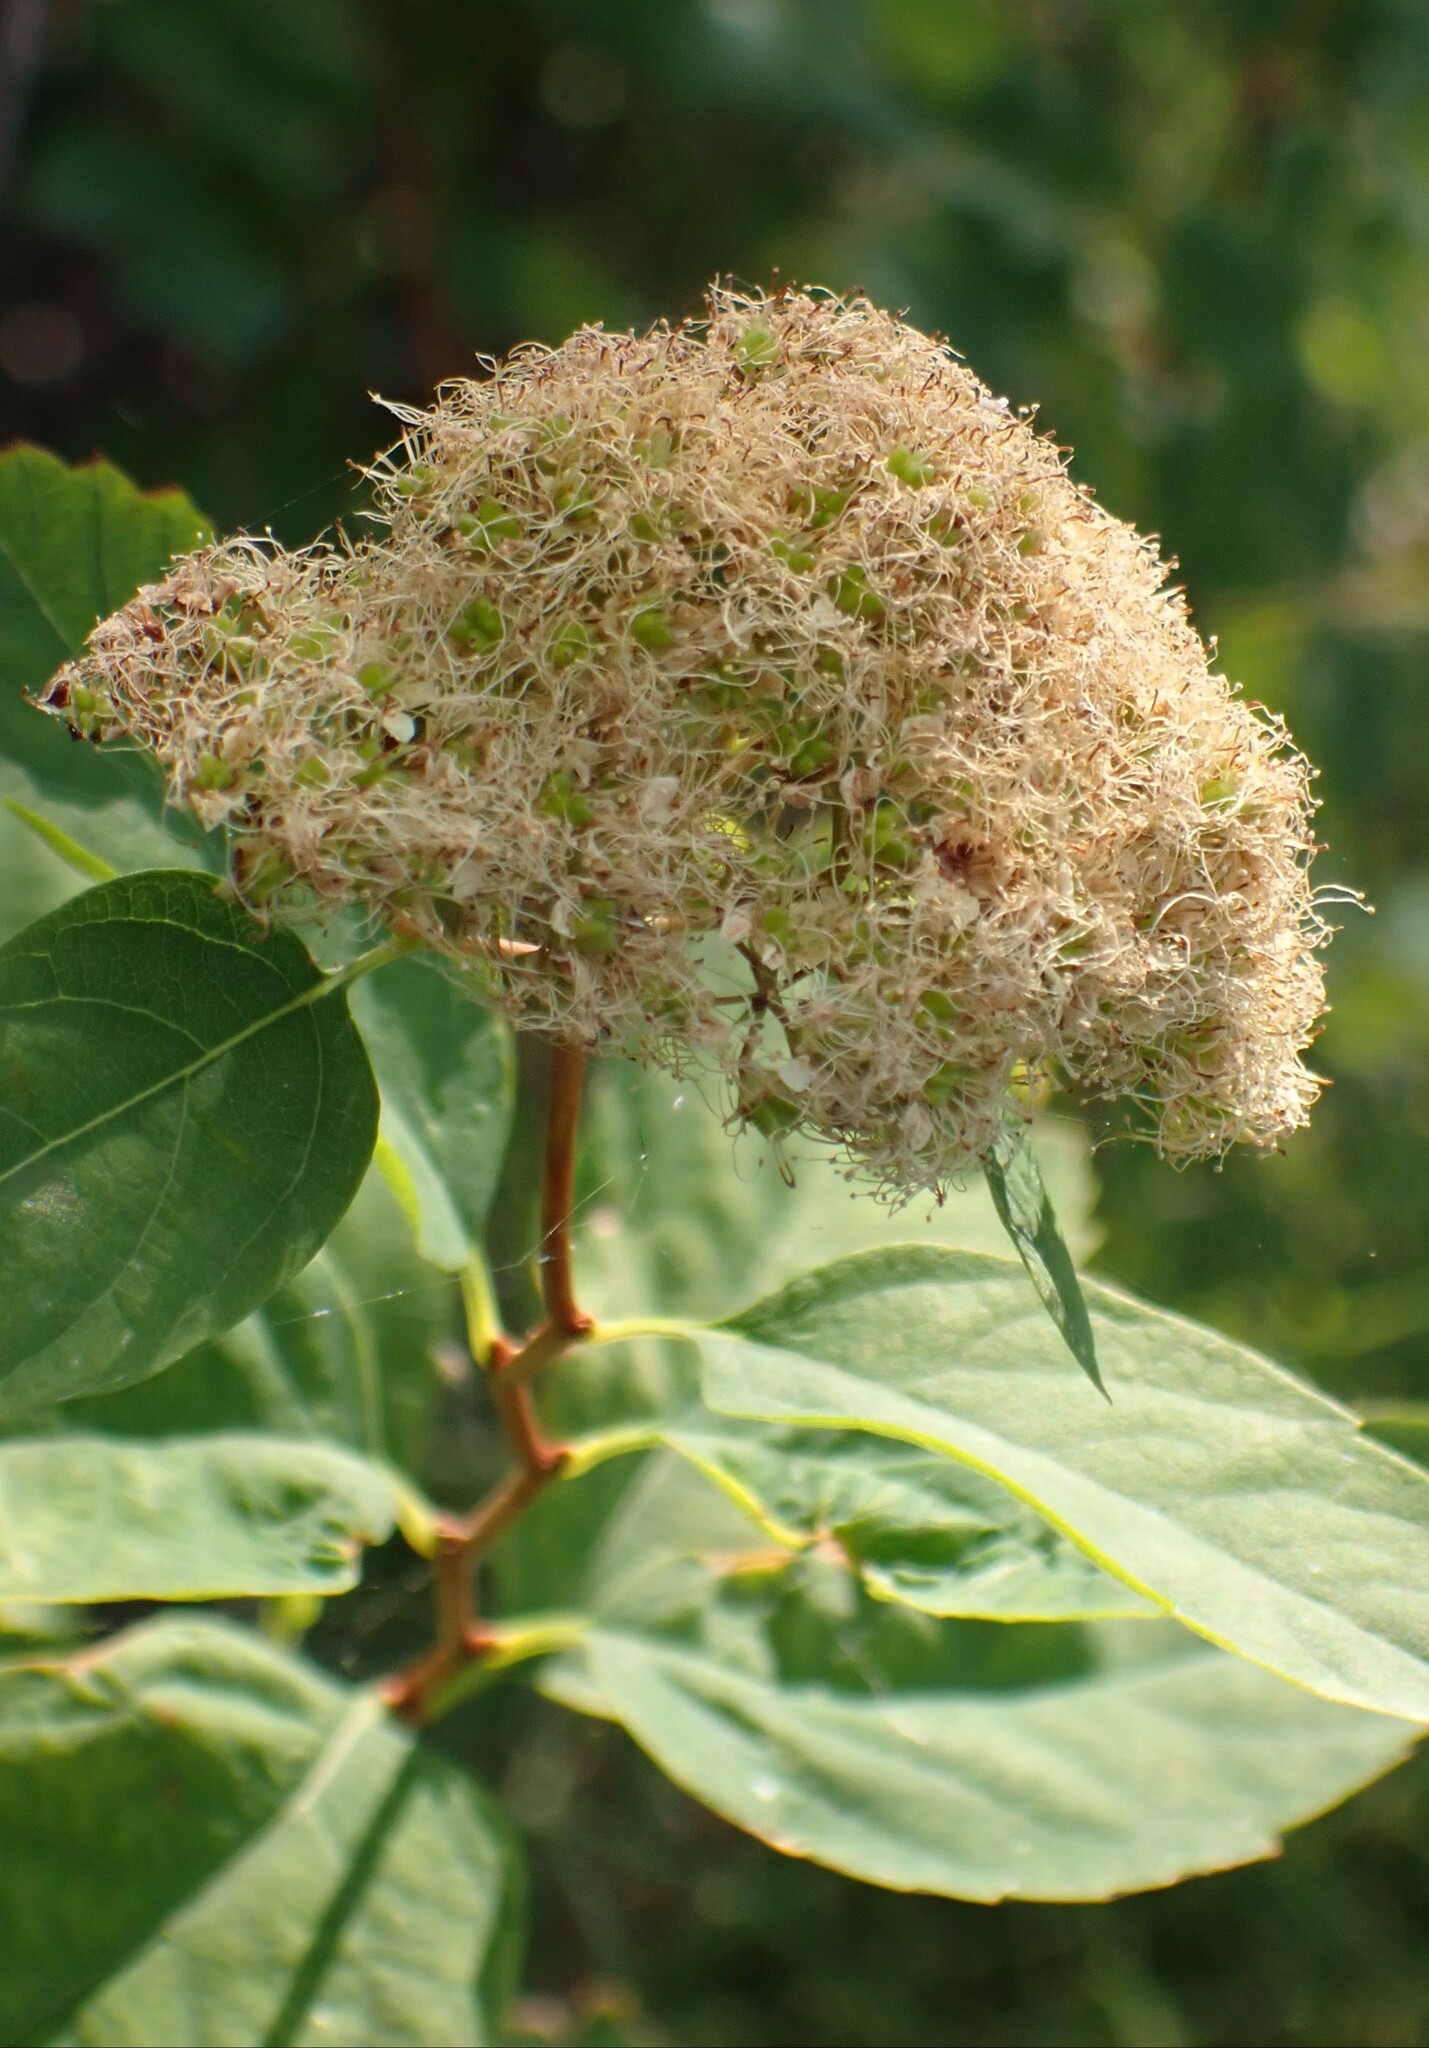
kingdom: Plantae
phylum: Tracheophyta
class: Magnoliopsida
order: Rosales
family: Rosaceae
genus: Spiraea
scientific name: Spiraea lucida
